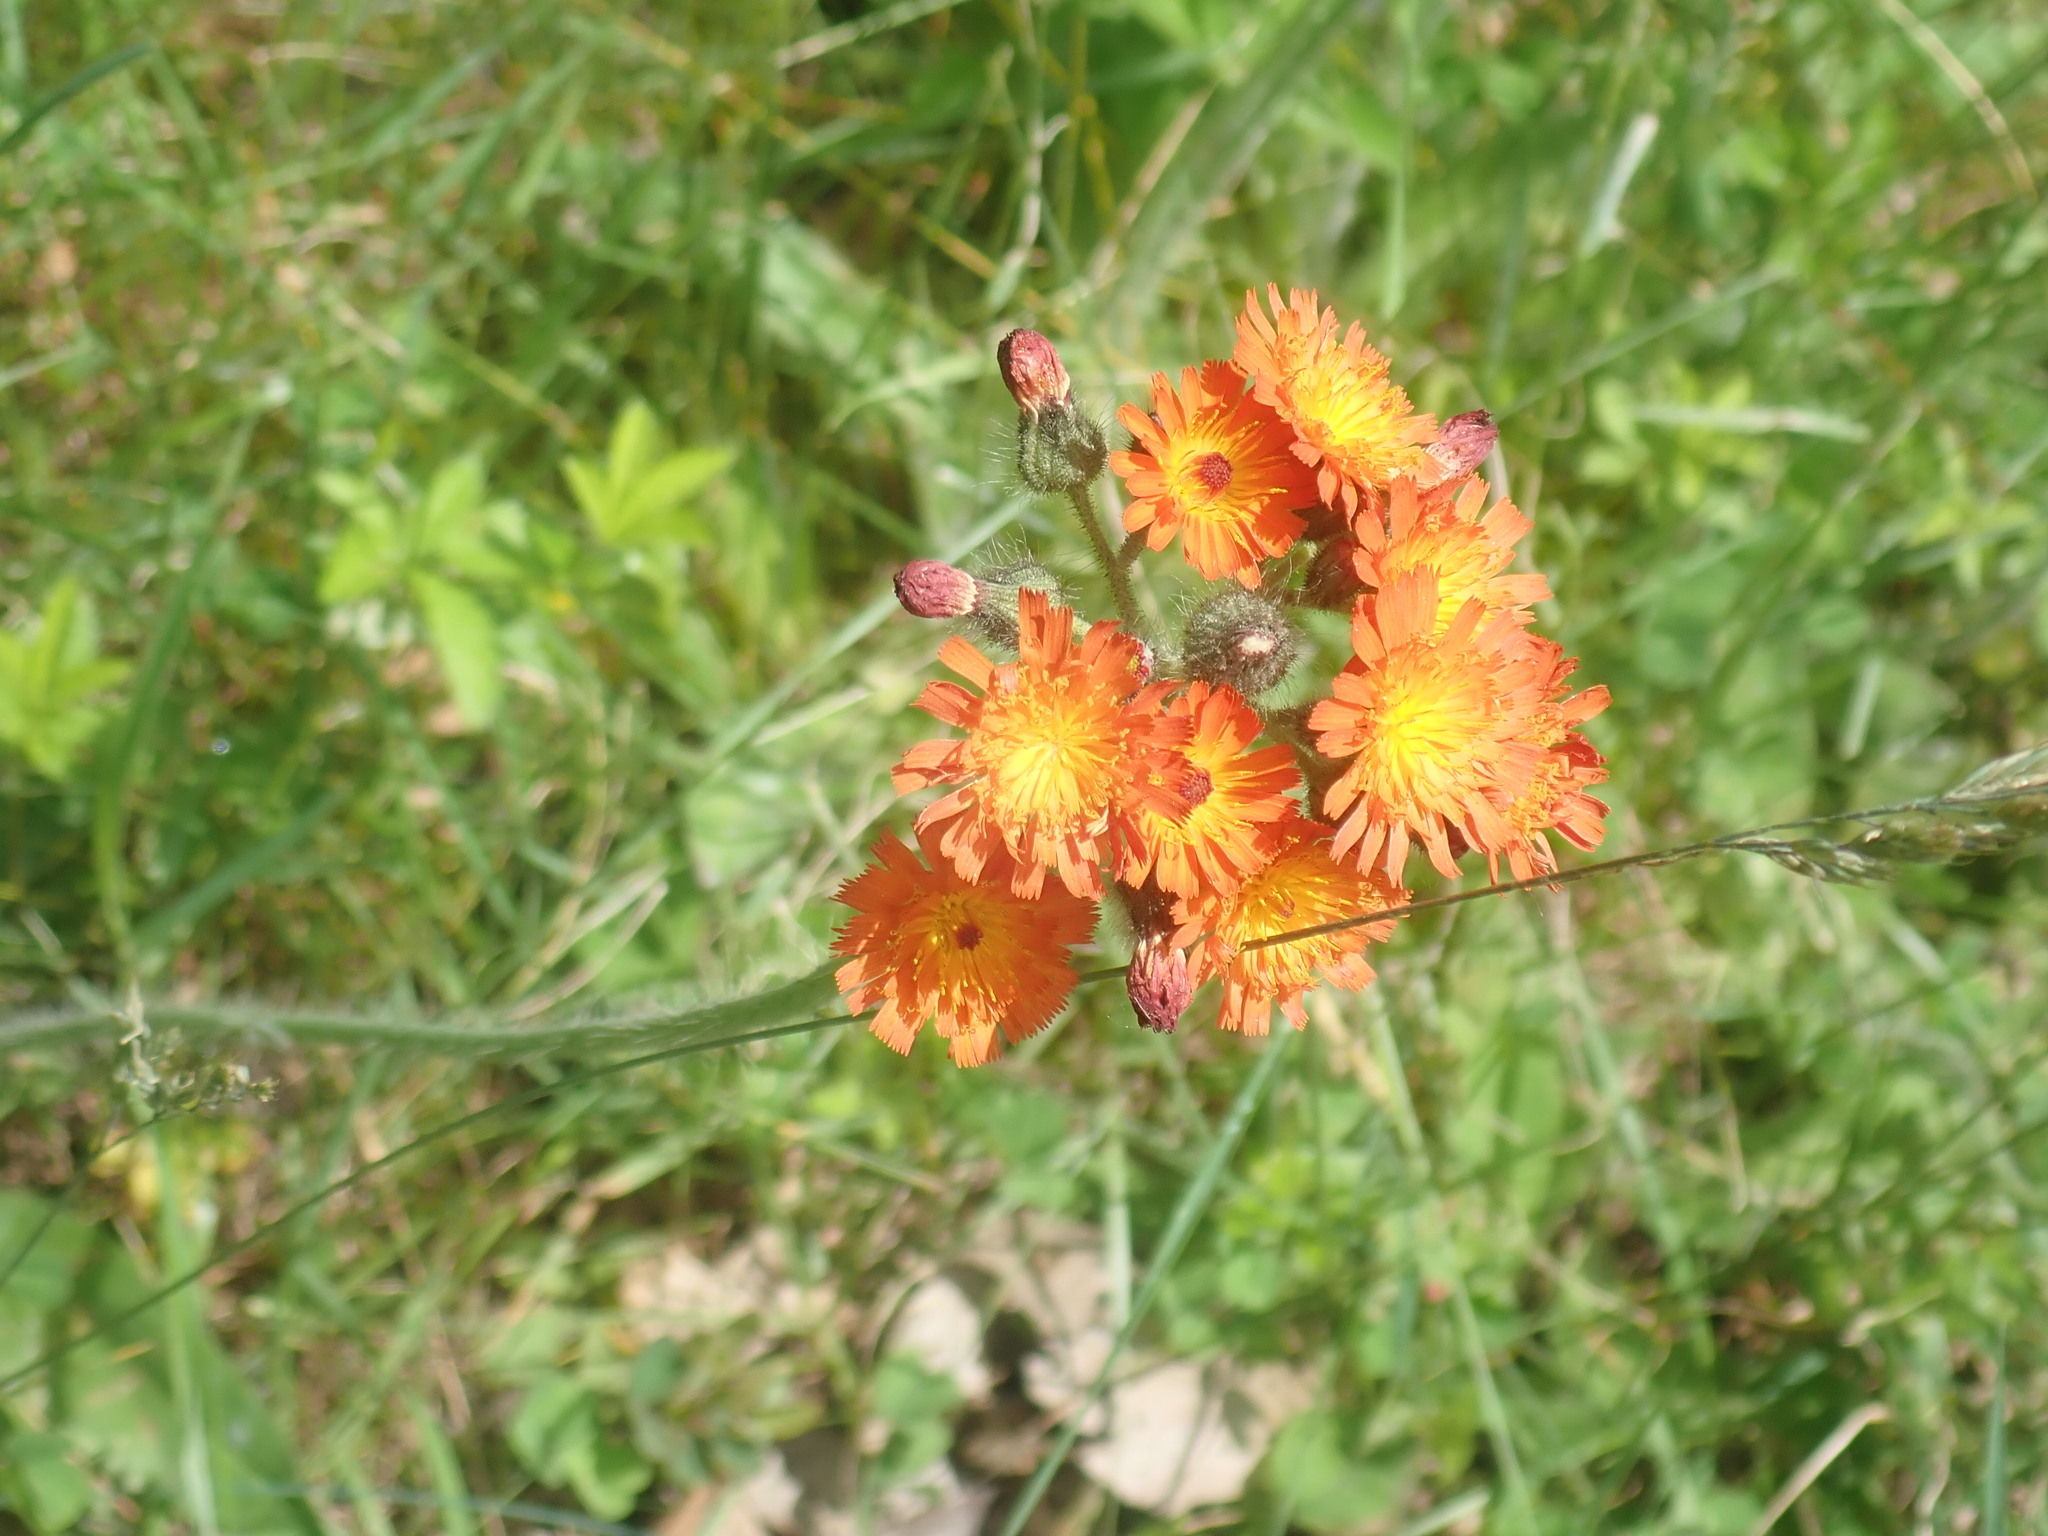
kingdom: Plantae
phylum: Tracheophyta
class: Magnoliopsida
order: Asterales
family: Asteraceae
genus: Pilosella
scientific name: Pilosella aurantiaca
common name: Fox-and-cubs
